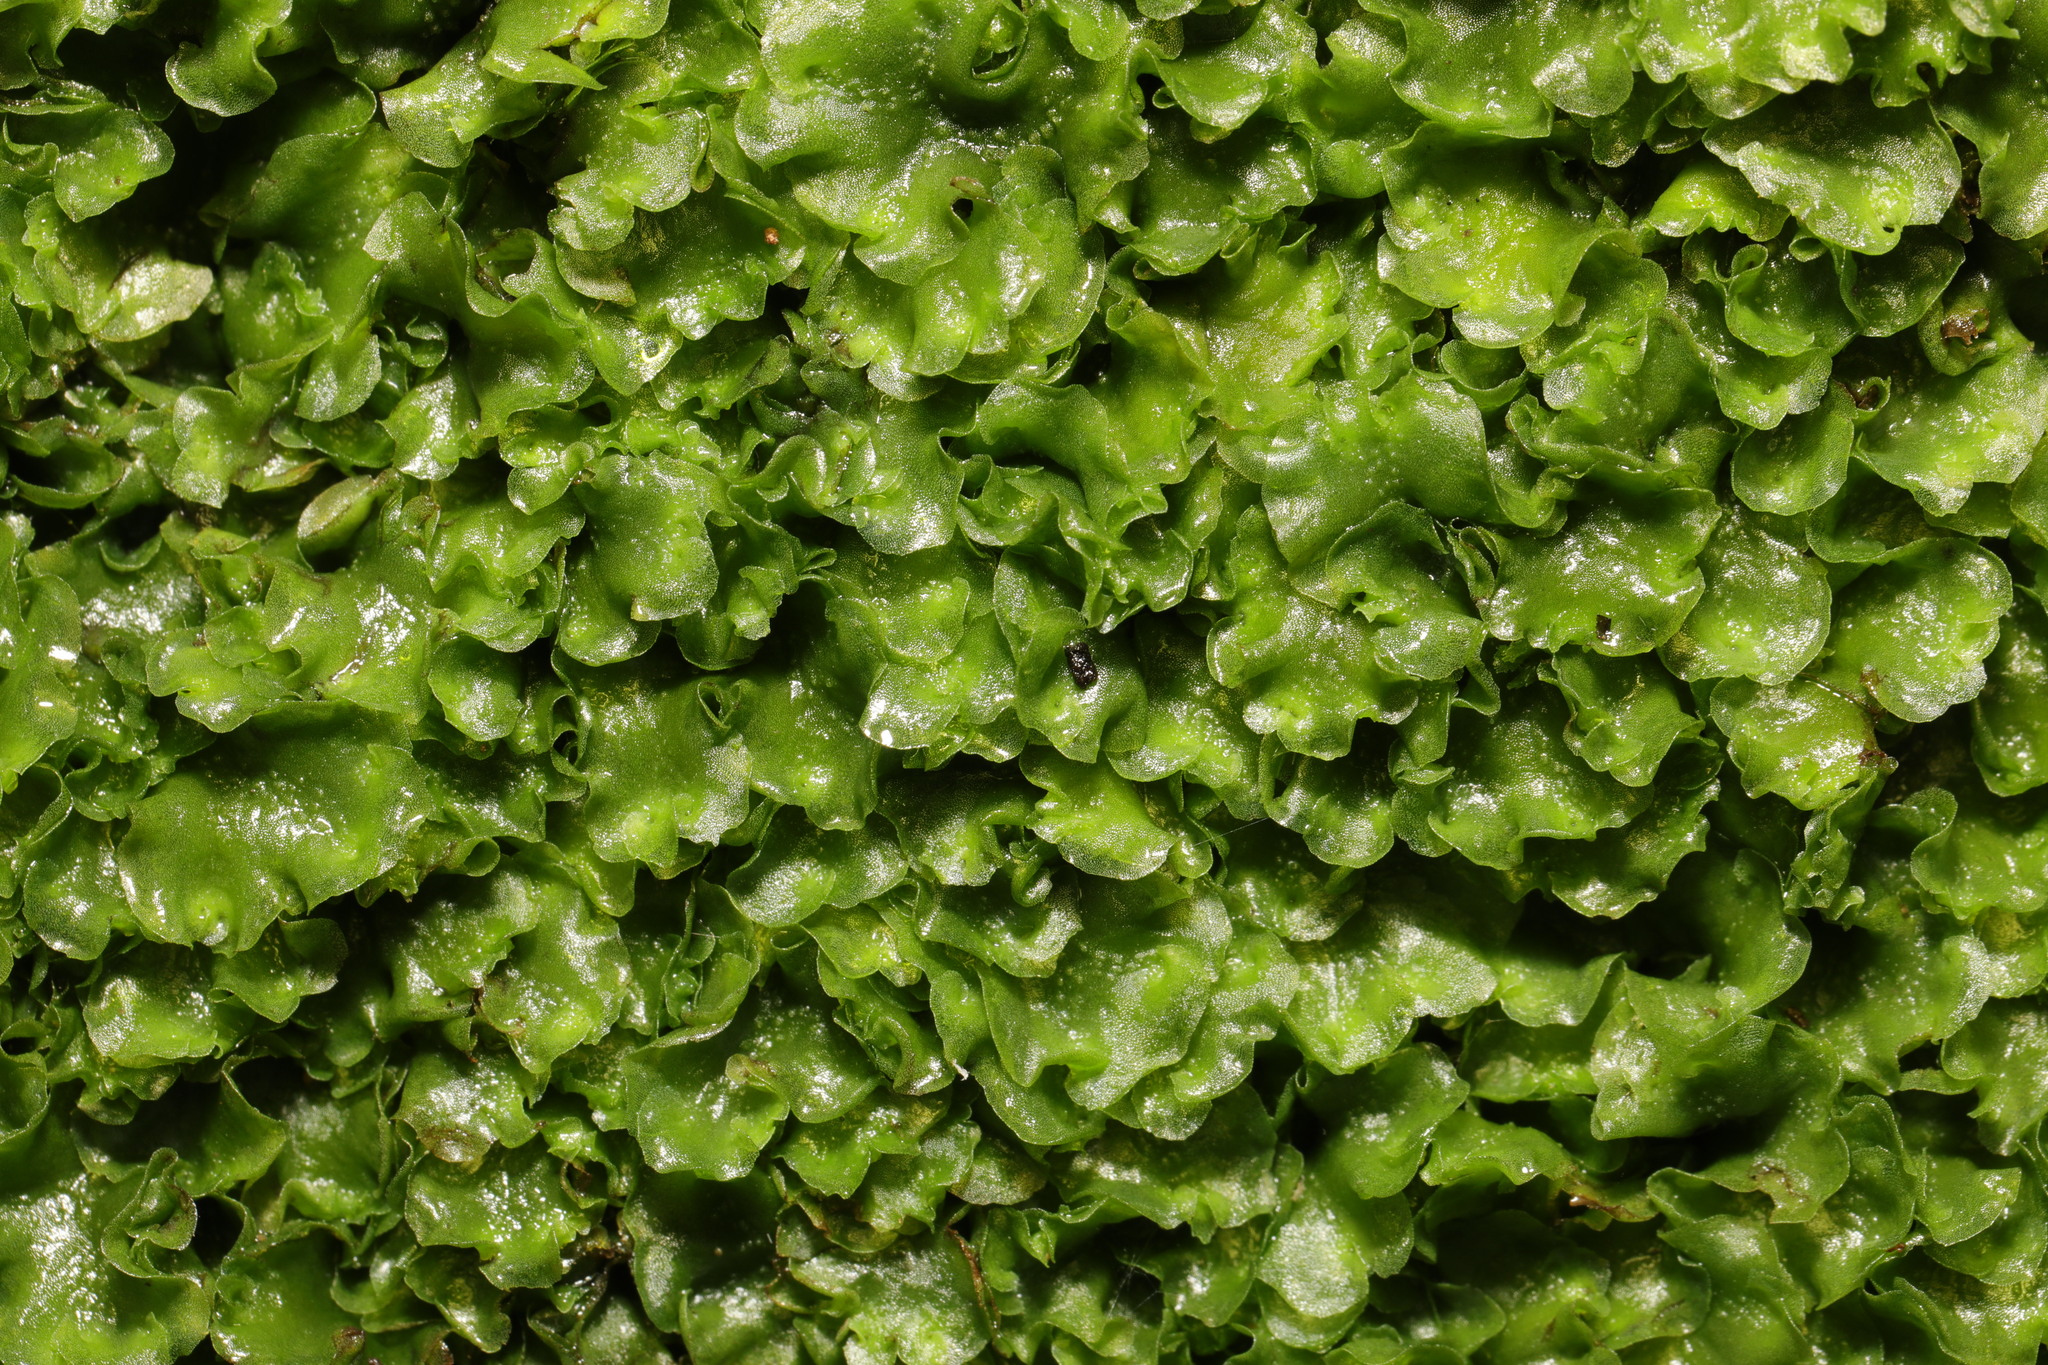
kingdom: Plantae
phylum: Marchantiophyta
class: Jungermanniopsida
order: Pelliales
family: Pelliaceae
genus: Pellia
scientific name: Pellia epiphylla
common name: Common pellia
